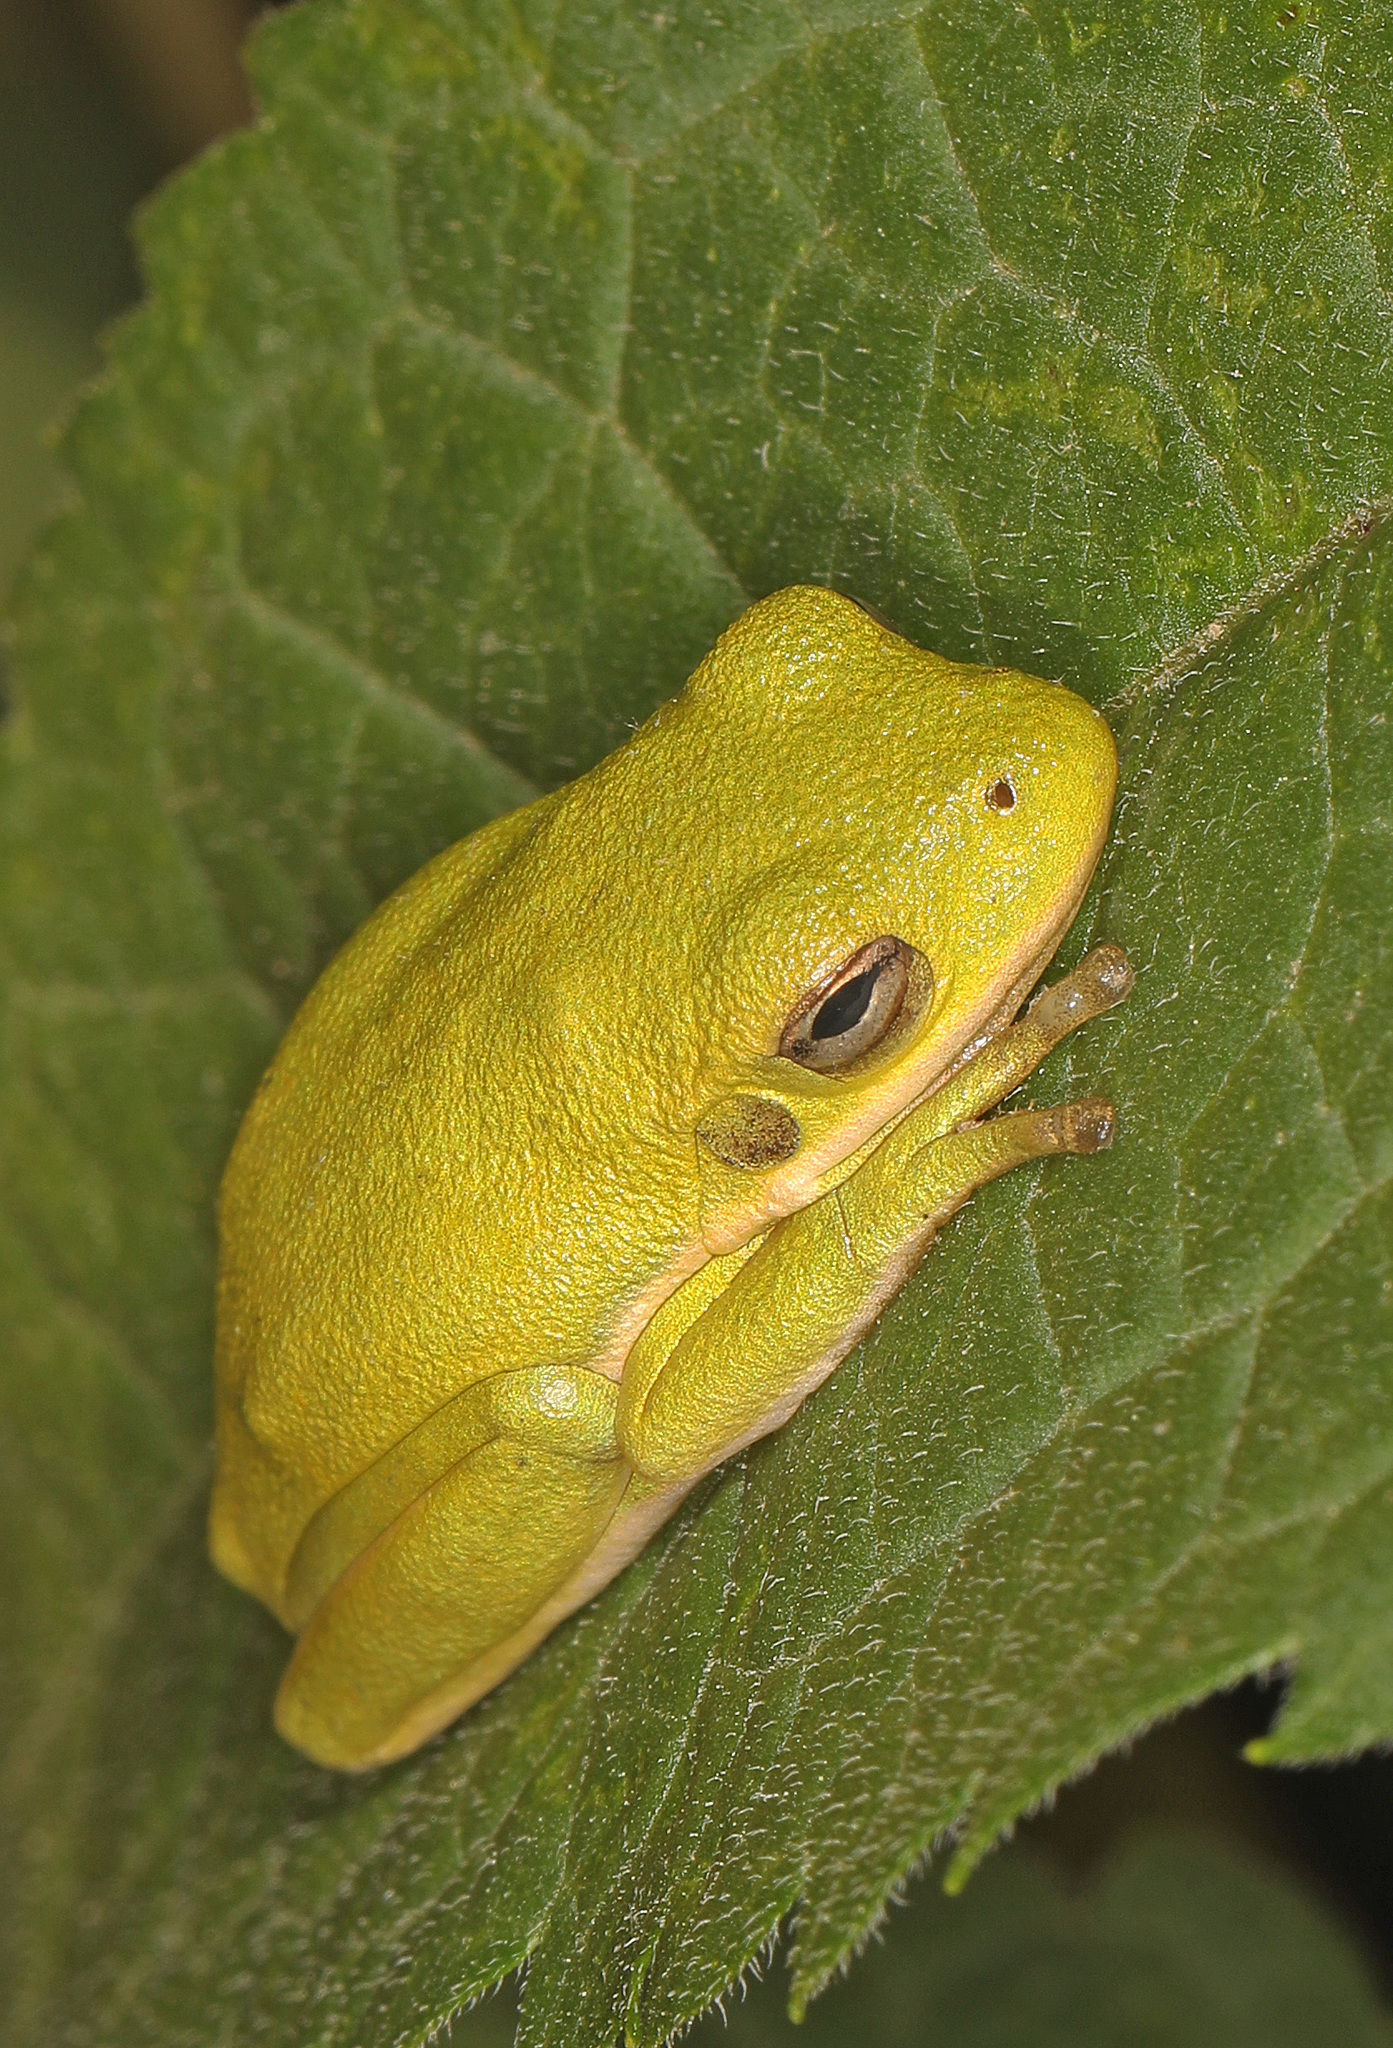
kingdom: Animalia
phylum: Chordata
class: Amphibia
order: Anura
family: Hylidae
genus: Dryophytes
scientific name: Dryophytes cinereus
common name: Green treefrog
